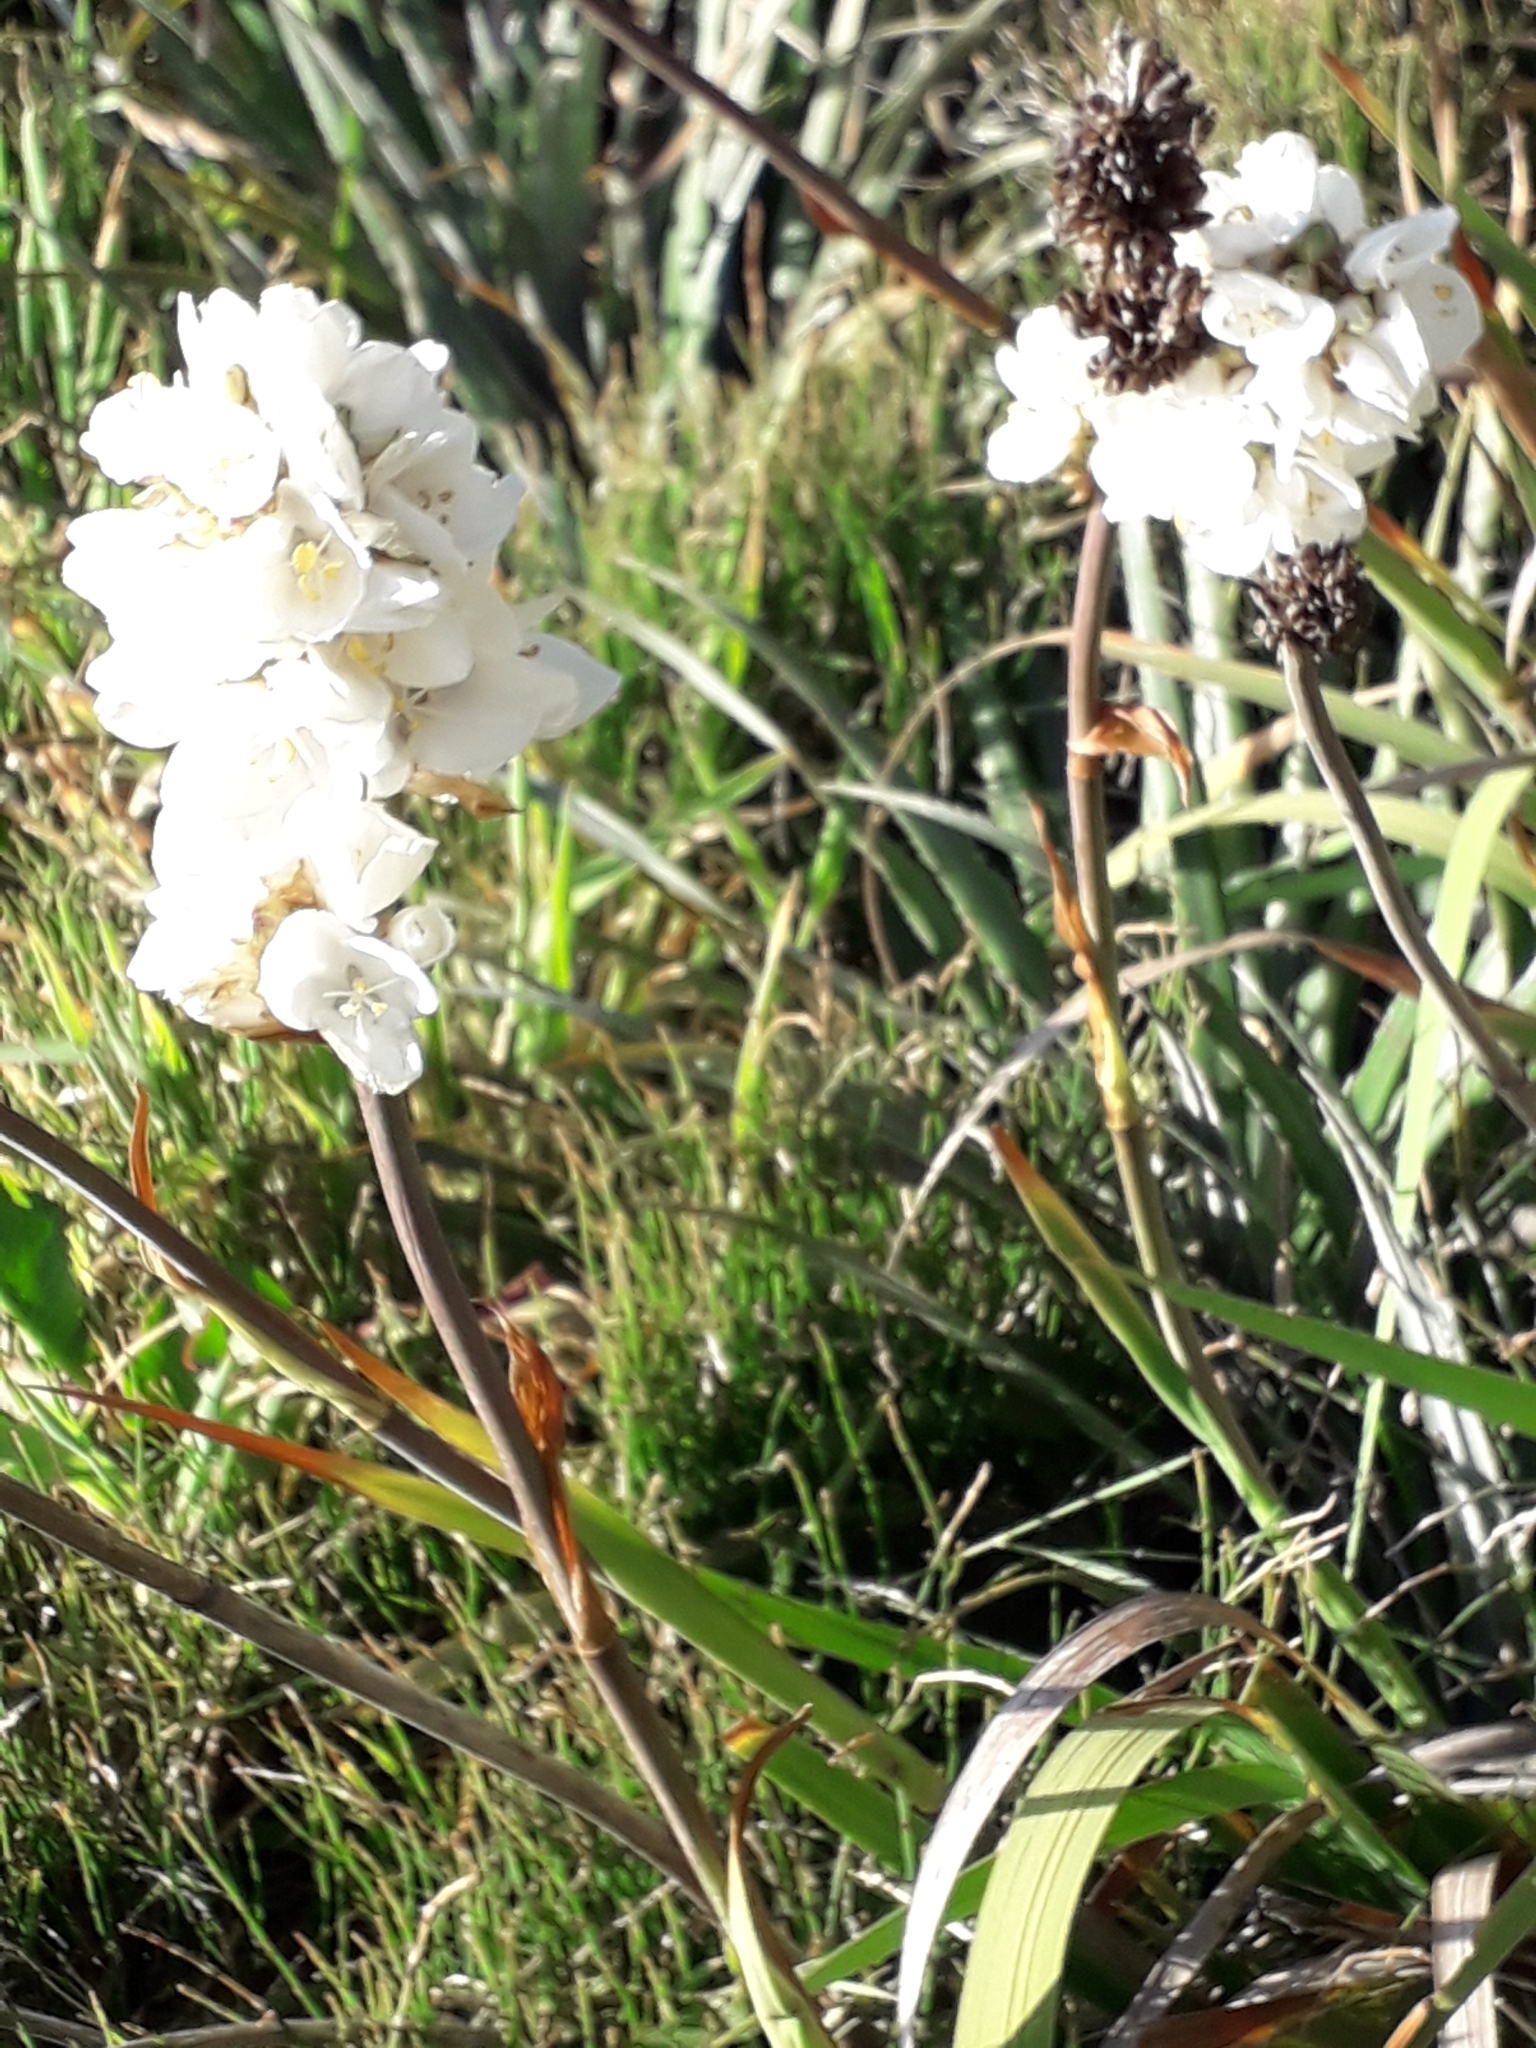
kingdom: Plantae
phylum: Tracheophyta
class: Liliopsida
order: Asparagales
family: Iridaceae
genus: Libertia
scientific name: Libertia chilensis
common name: Satin flower
